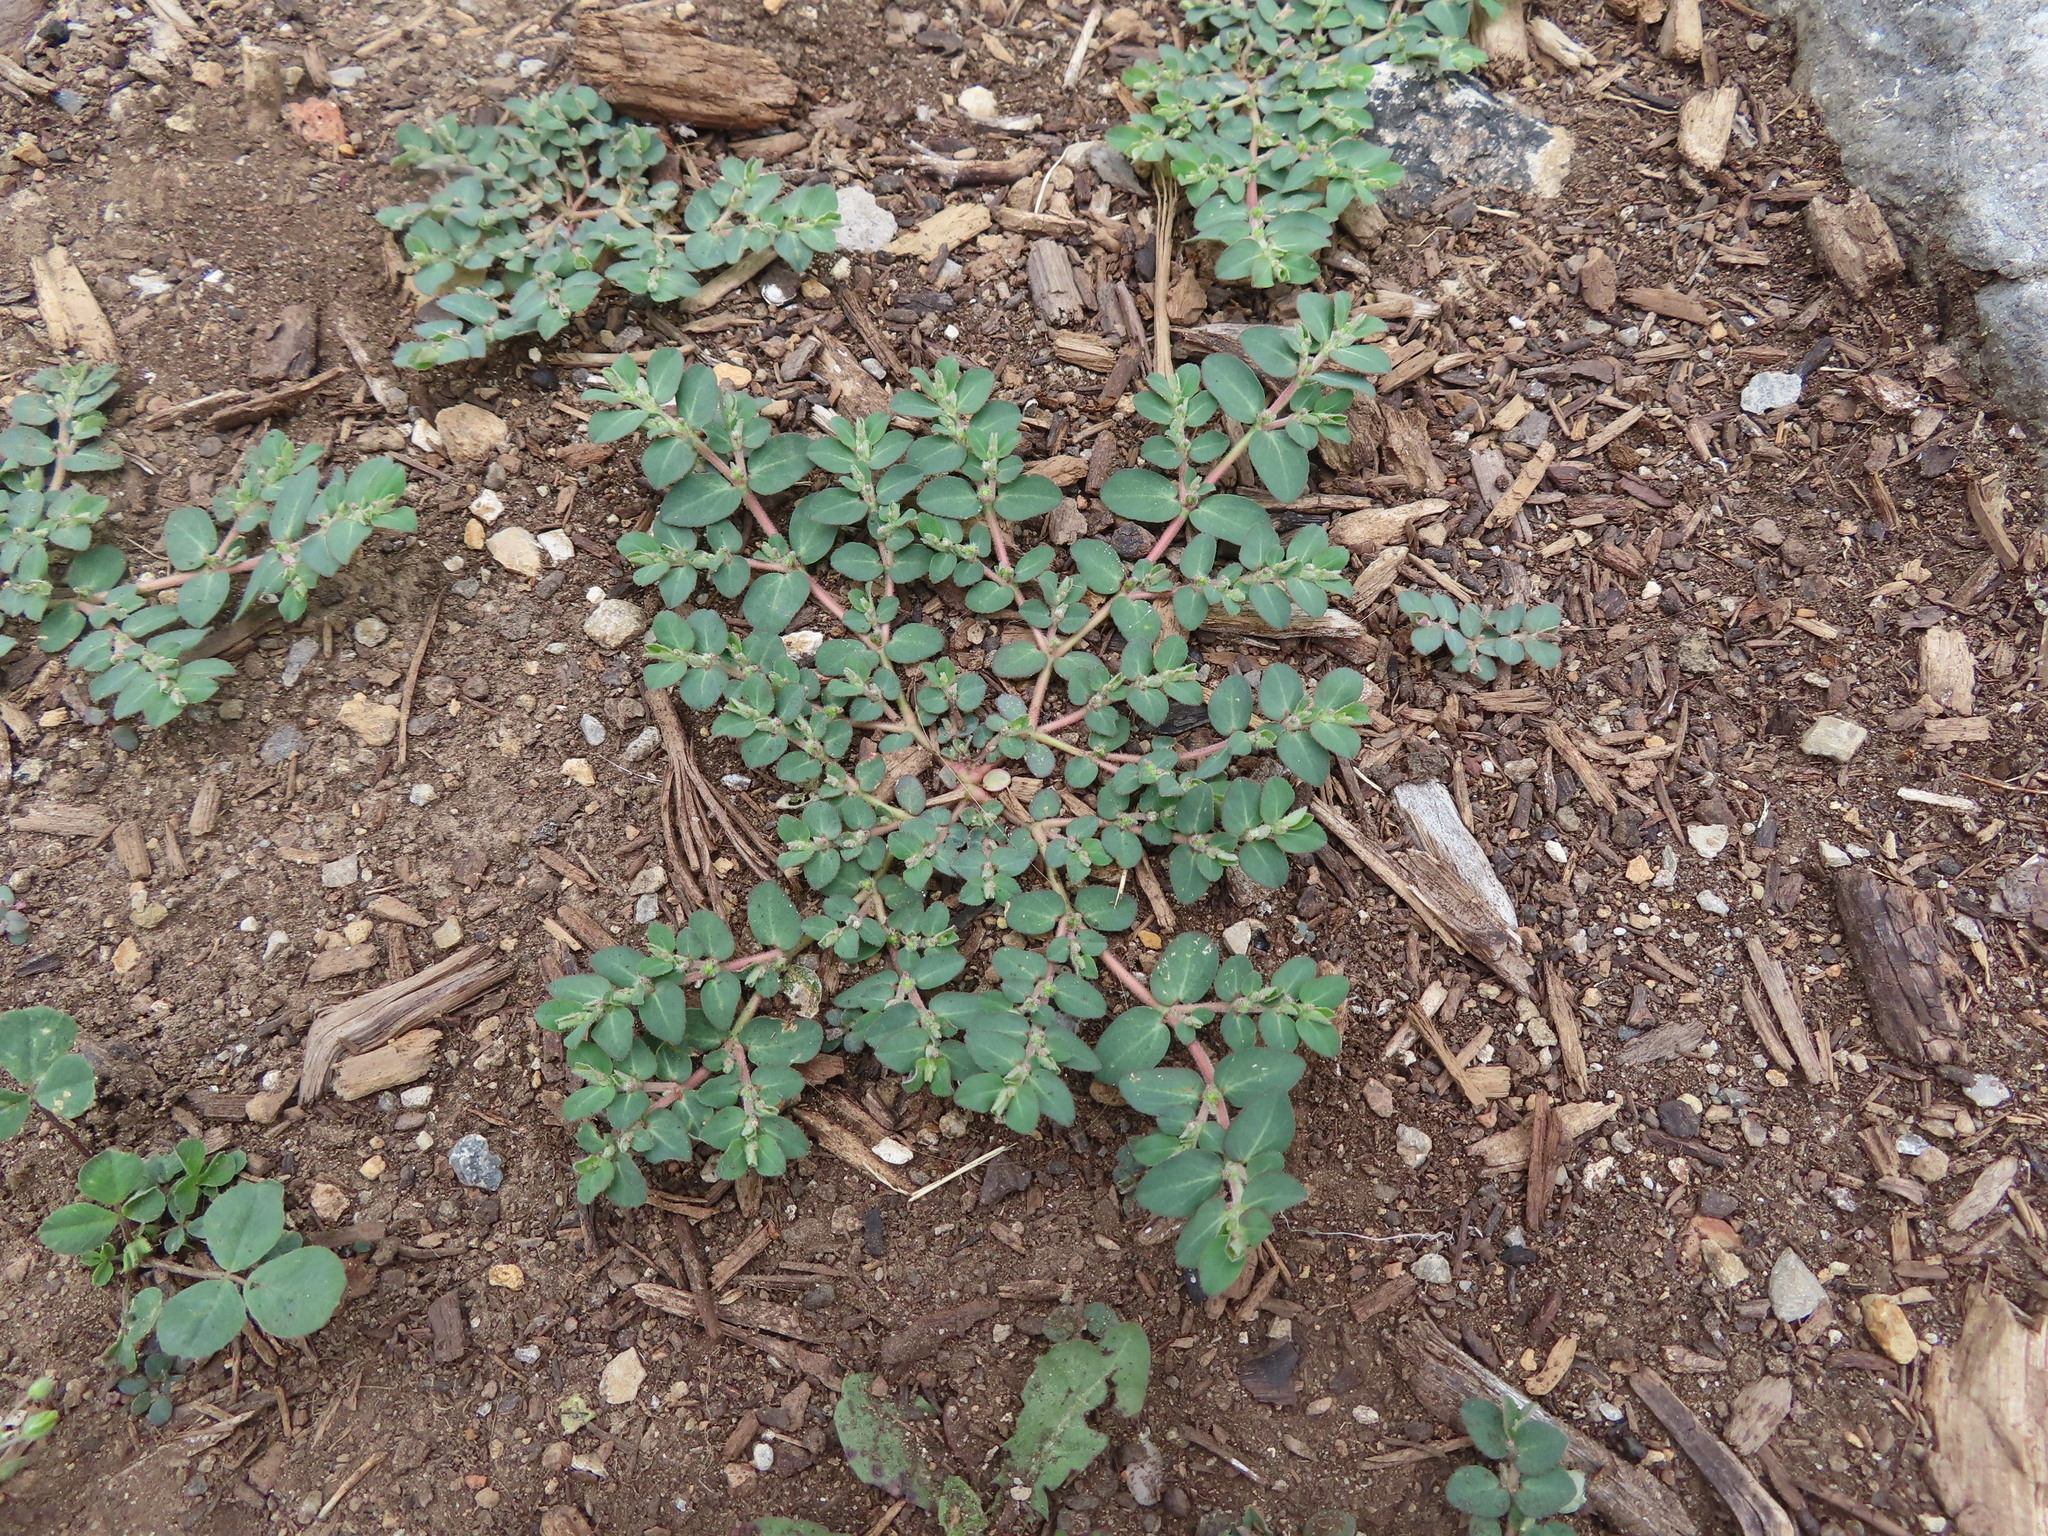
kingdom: Plantae
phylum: Tracheophyta
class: Magnoliopsida
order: Malpighiales
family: Euphorbiaceae
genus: Euphorbia
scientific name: Euphorbia prostrata
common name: Prostrate sandmat
